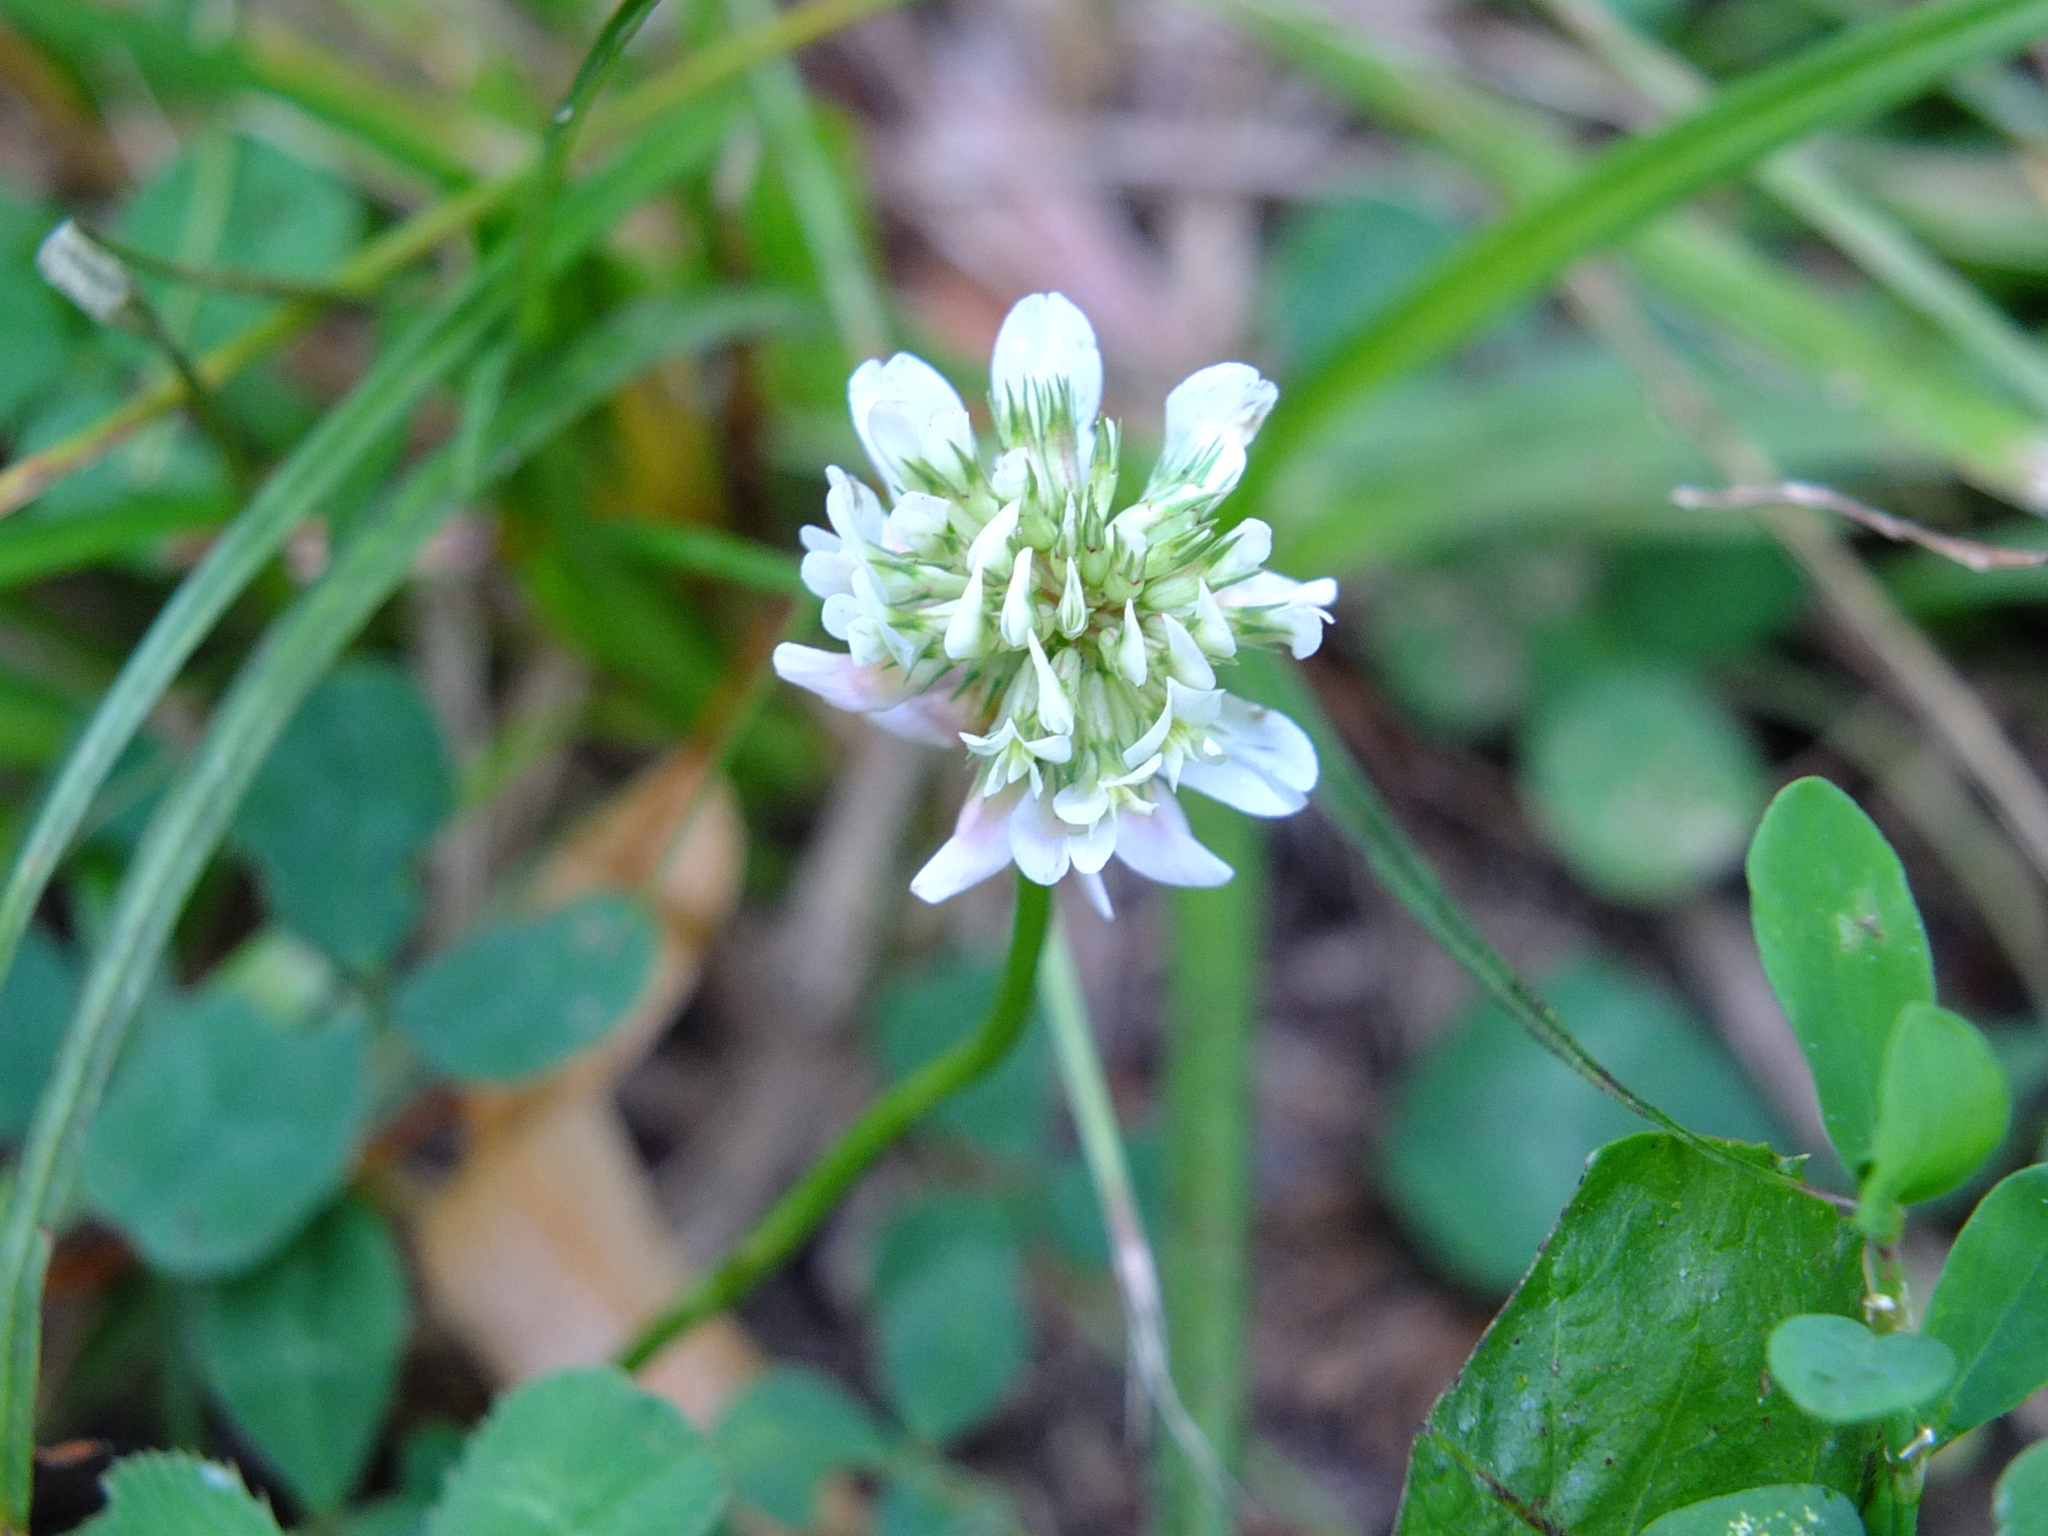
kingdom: Plantae
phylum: Tracheophyta
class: Magnoliopsida
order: Fabales
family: Fabaceae
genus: Trifolium
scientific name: Trifolium repens
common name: White clover
